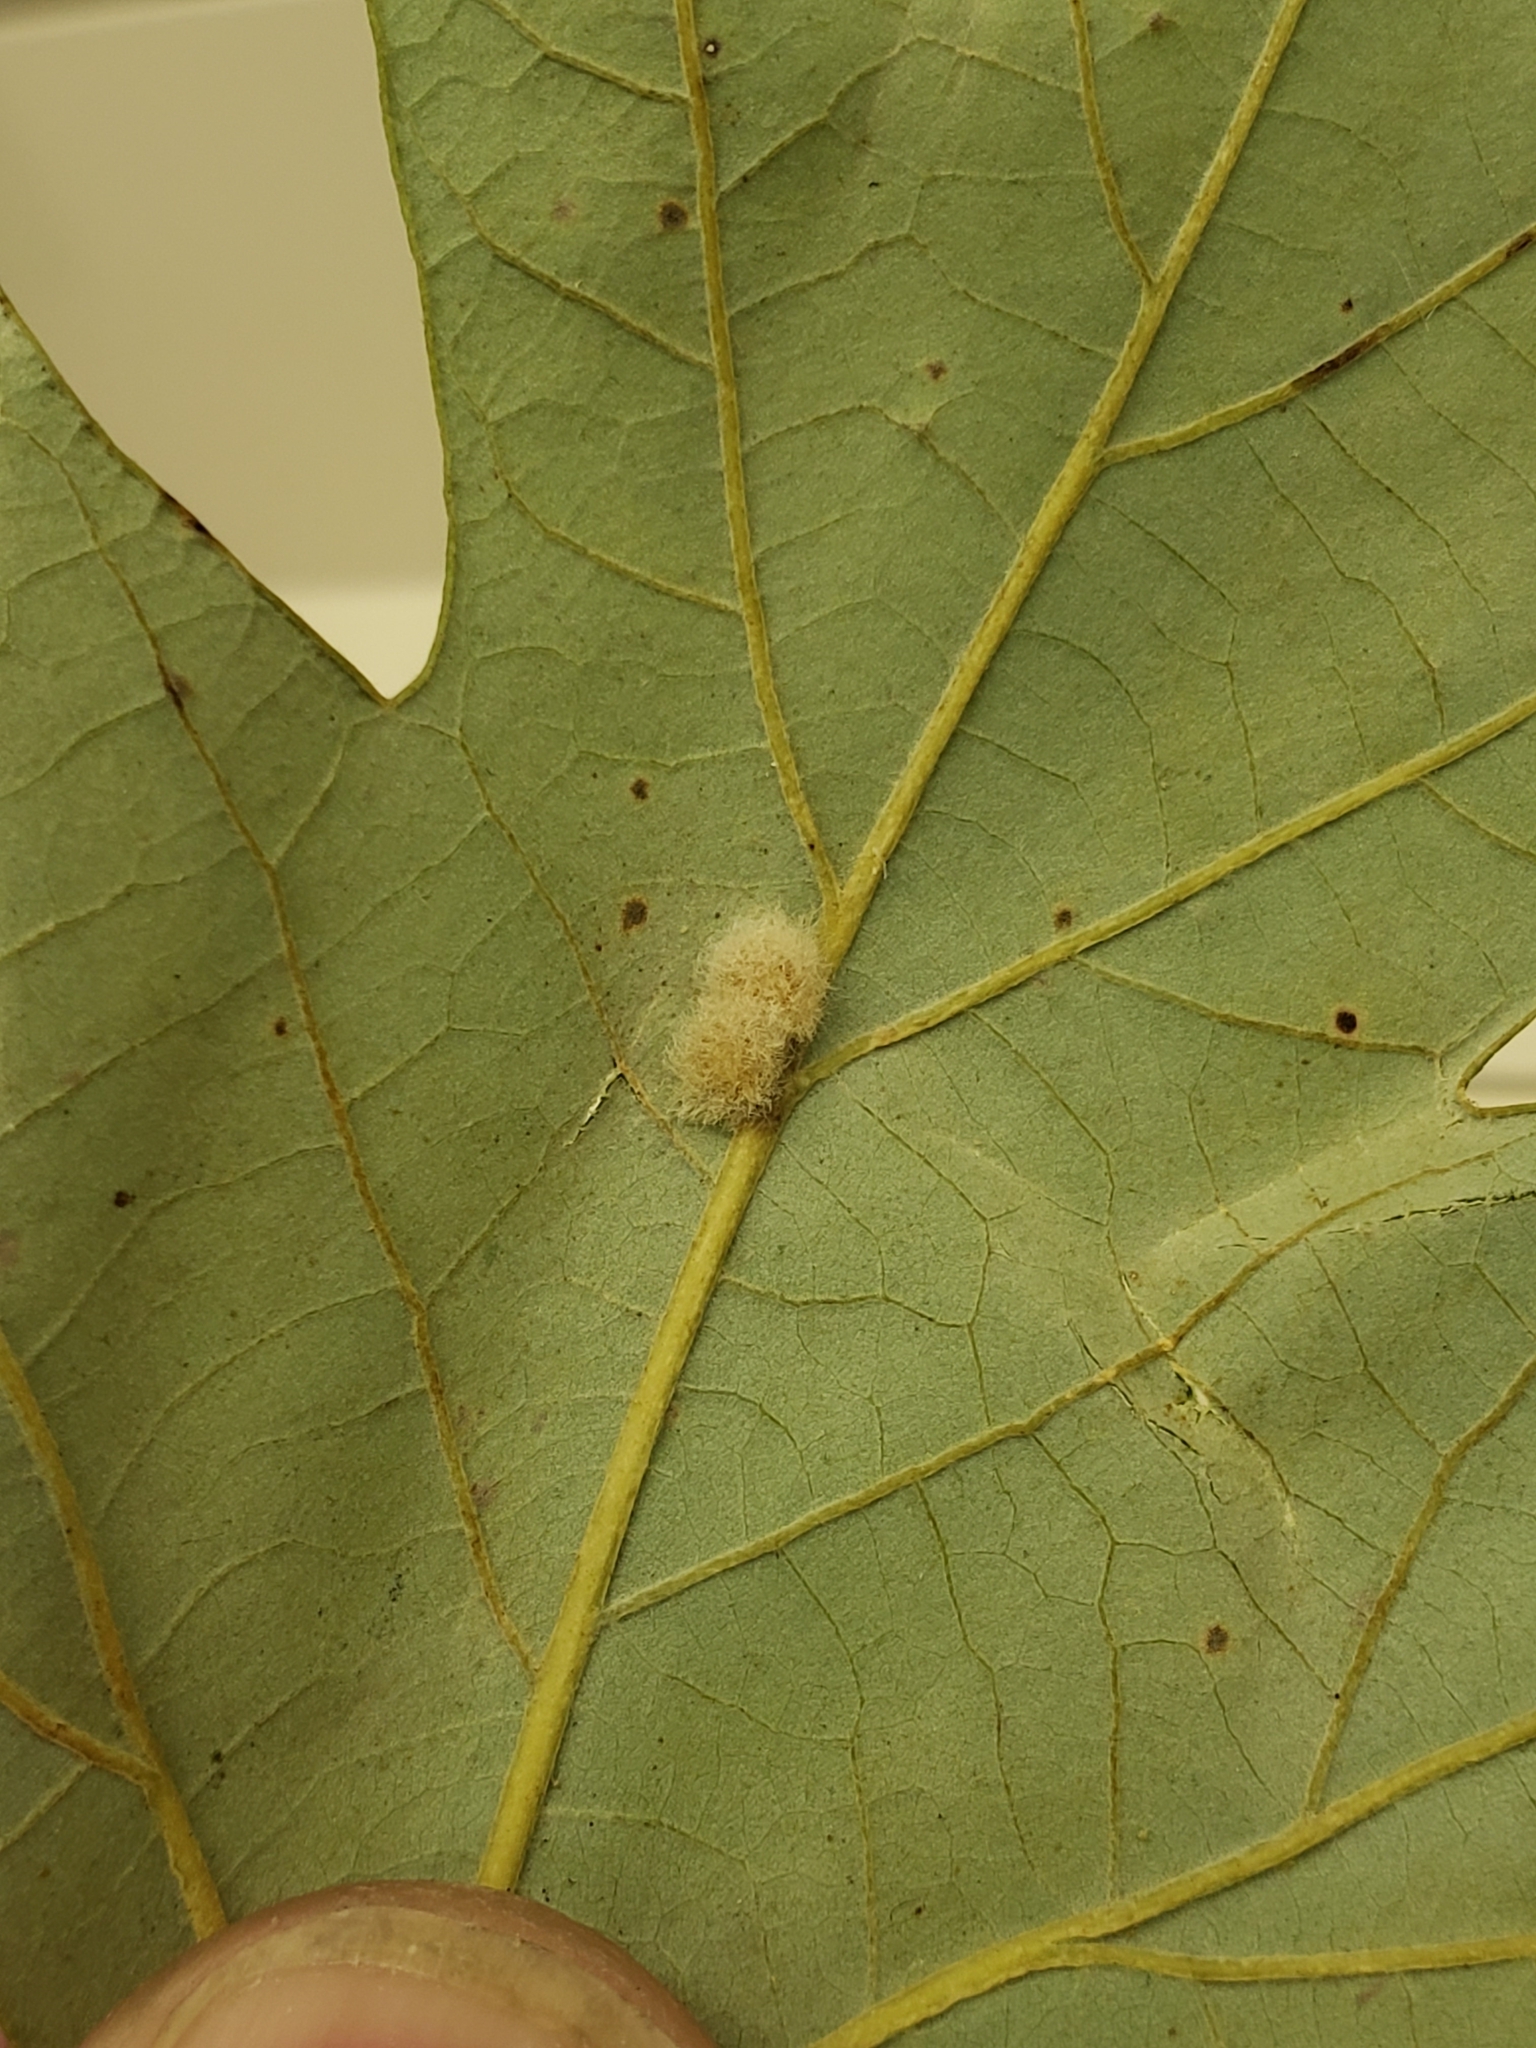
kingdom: Animalia
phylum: Arthropoda
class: Insecta
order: Hymenoptera
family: Cynipidae
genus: Andricus
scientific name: Andricus Druon ignotum
